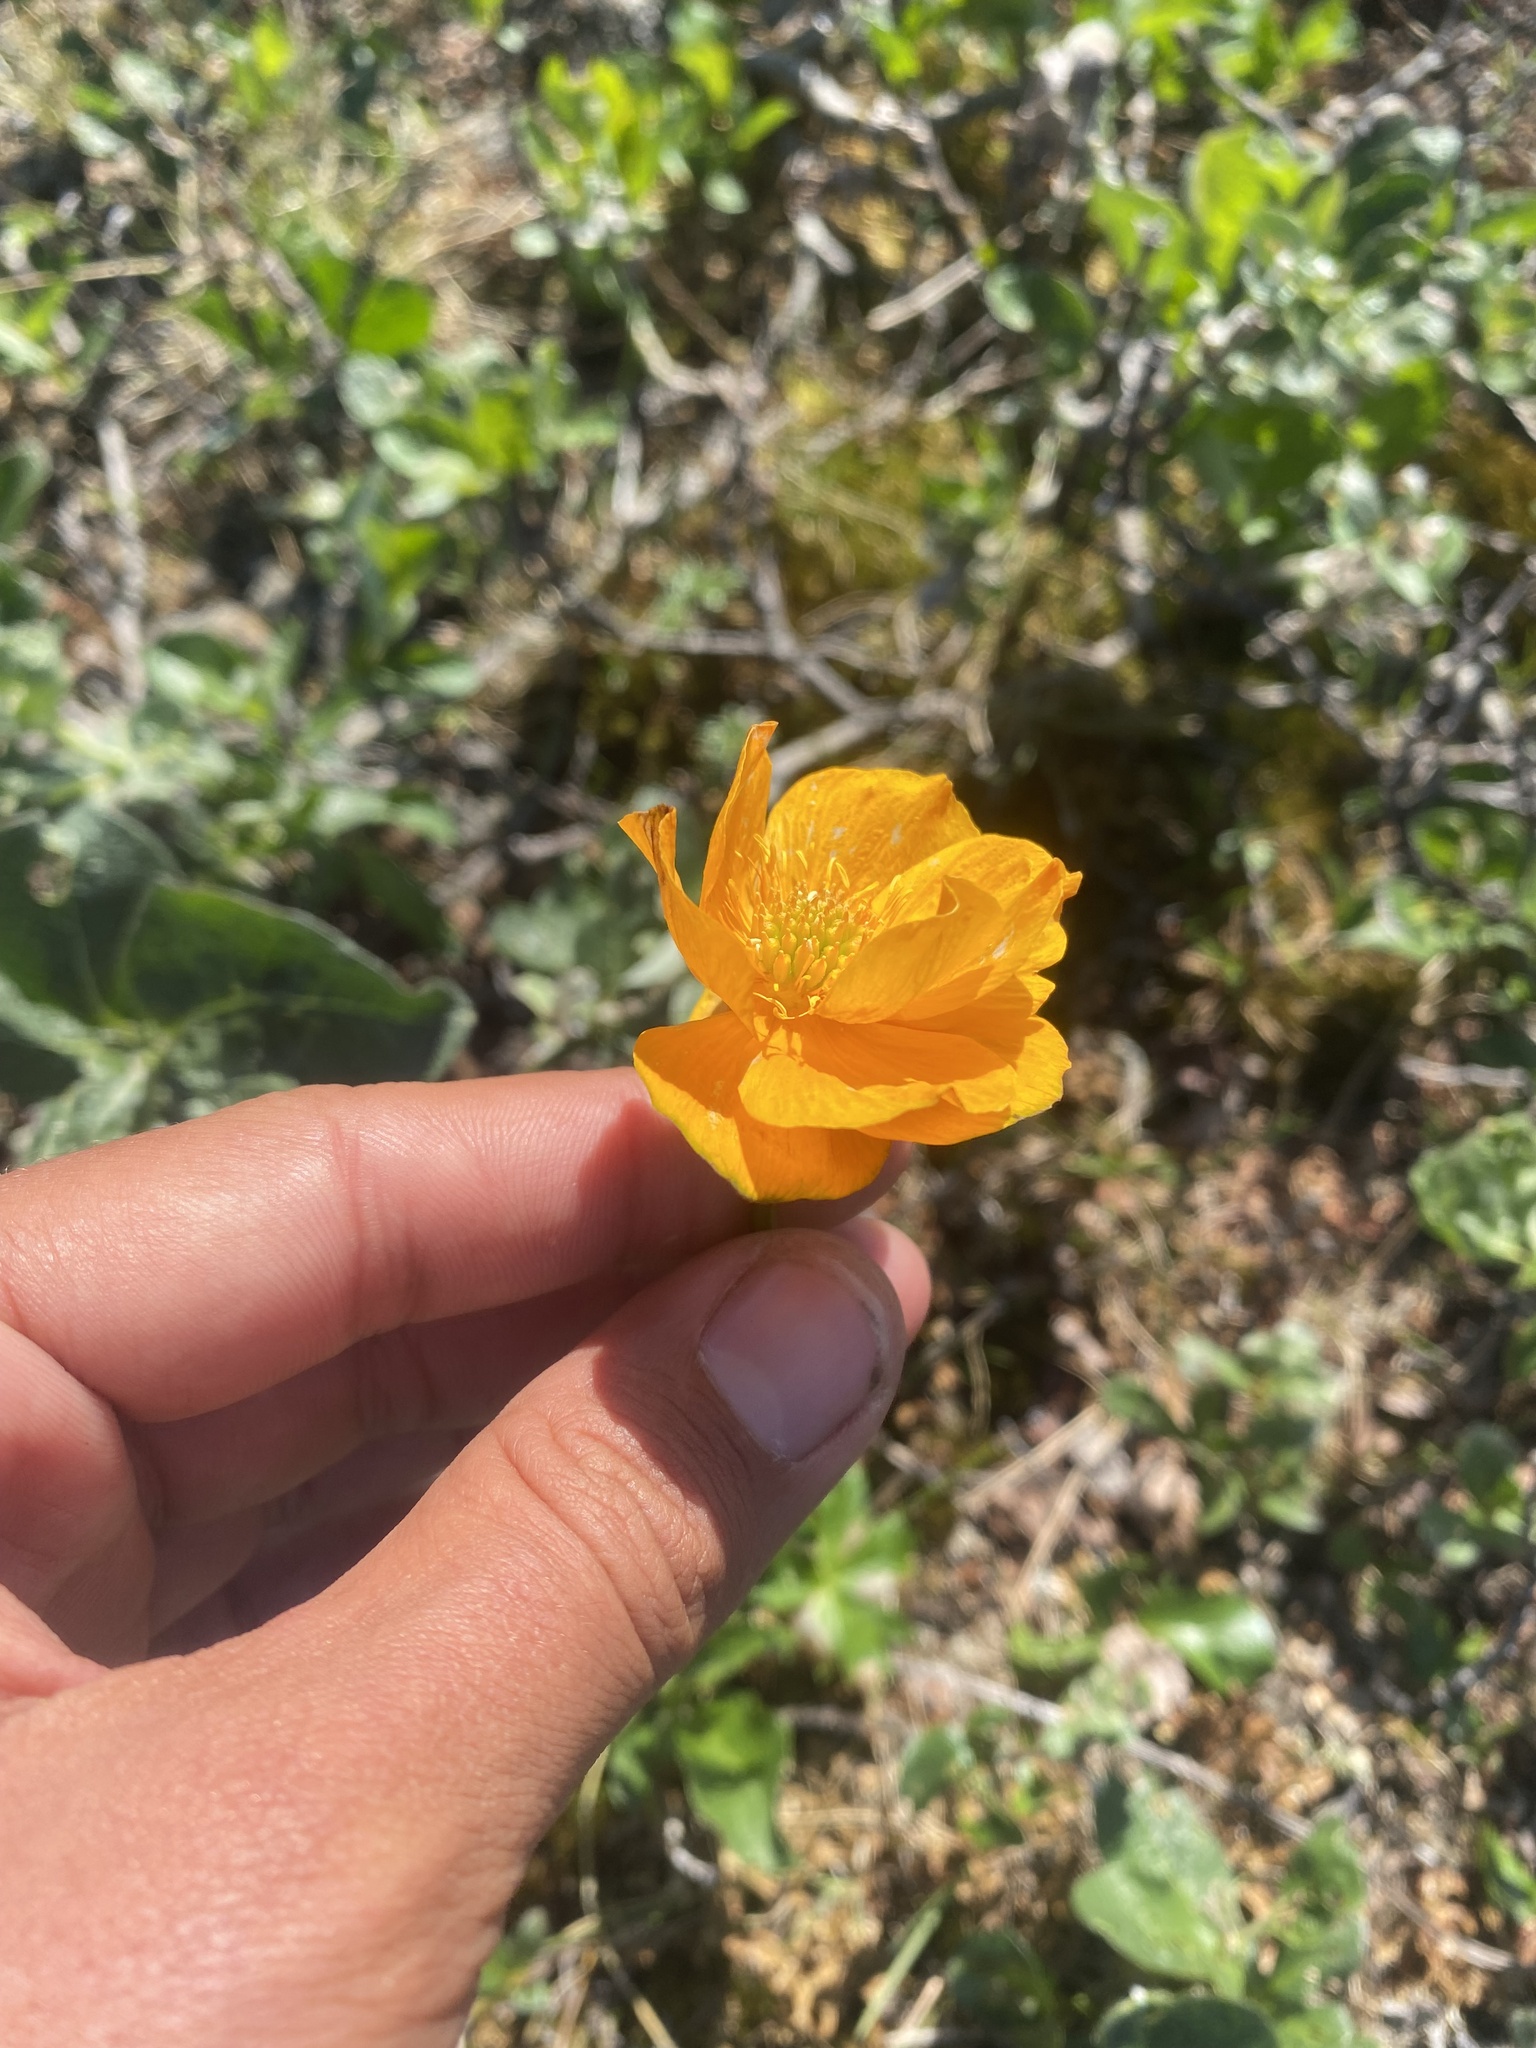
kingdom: Plantae
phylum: Tracheophyta
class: Magnoliopsida
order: Ranunculales
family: Ranunculaceae
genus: Trollius
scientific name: Trollius asiaticus
